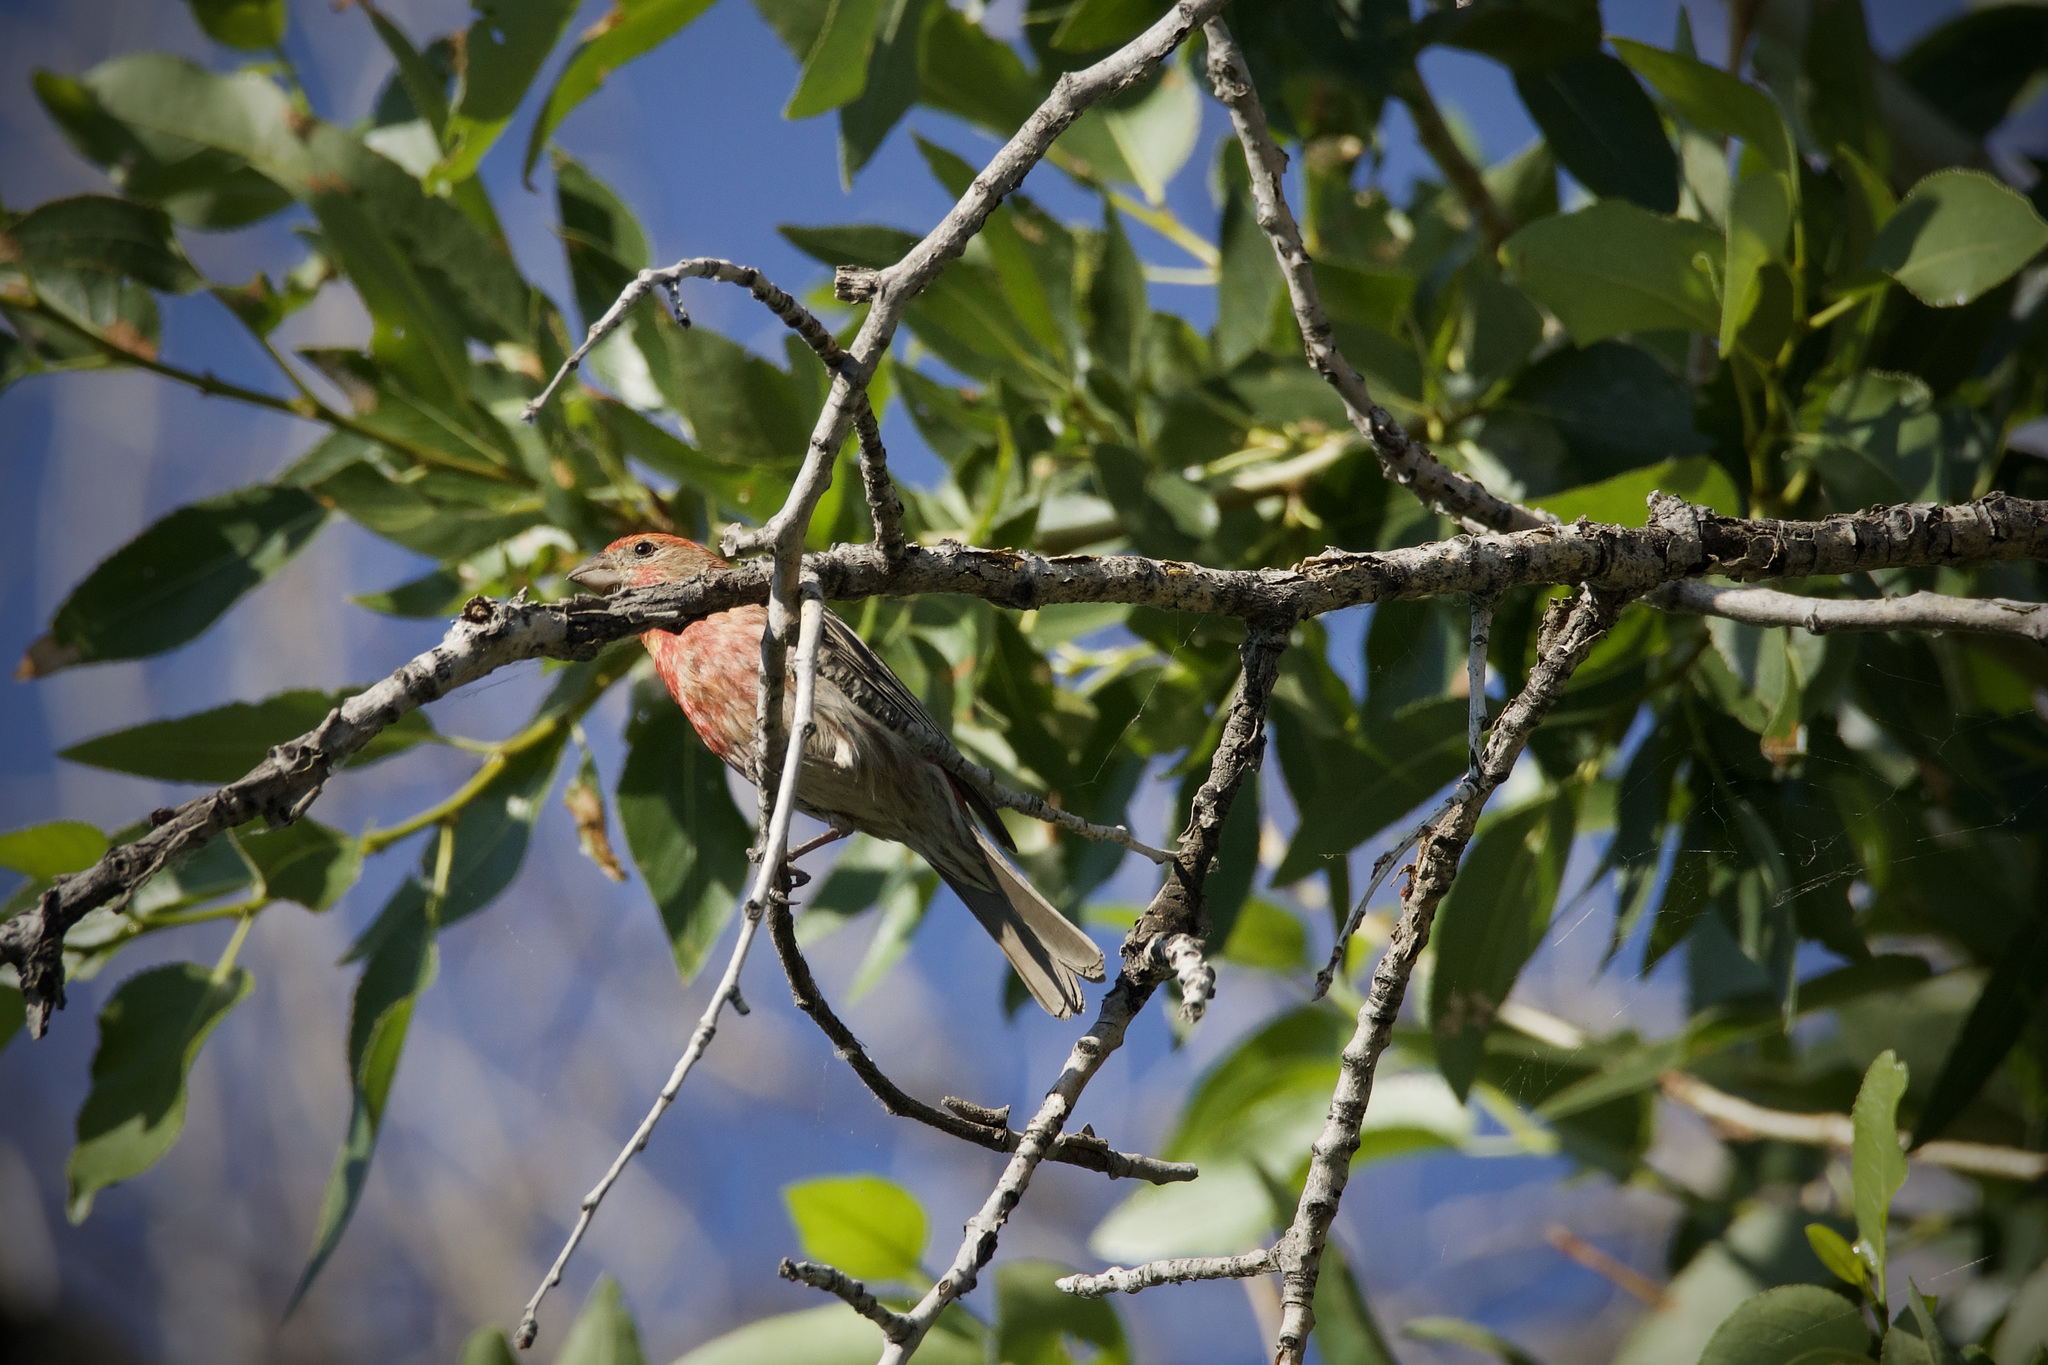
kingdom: Animalia
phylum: Chordata
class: Aves
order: Passeriformes
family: Fringillidae
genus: Haemorhous
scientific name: Haemorhous mexicanus
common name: House finch
